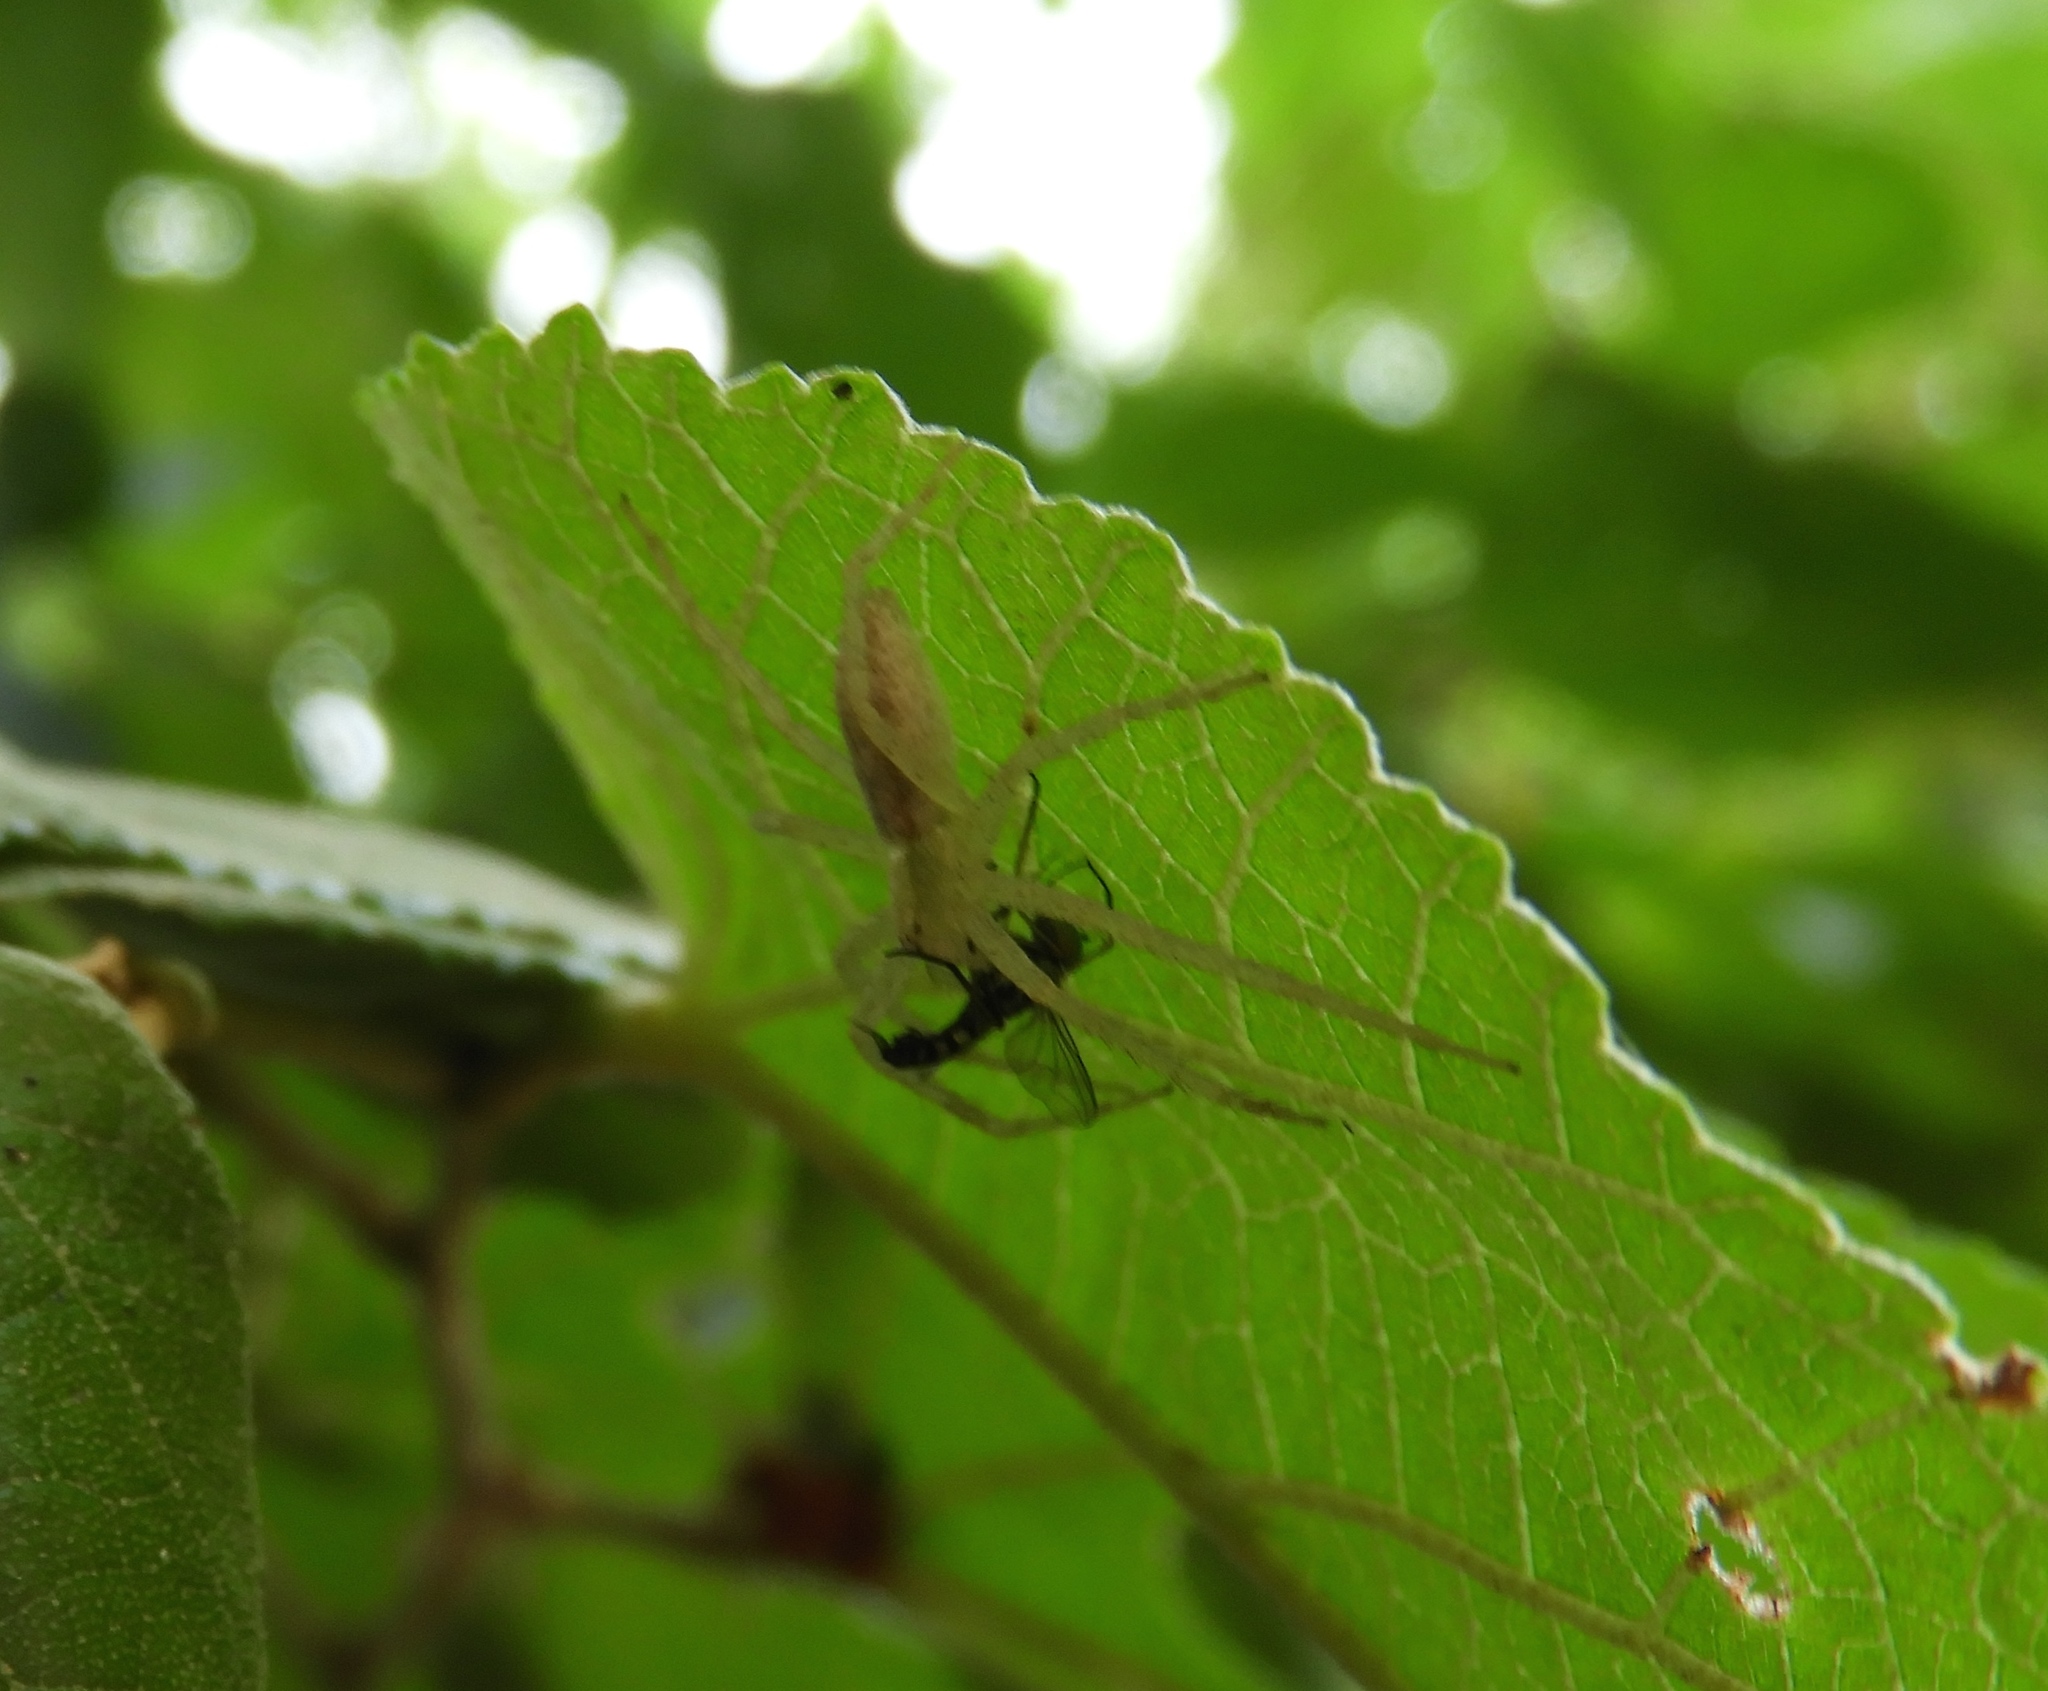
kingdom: Animalia
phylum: Arthropoda
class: Arachnida
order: Araneae
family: Philodromidae
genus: Apollophanes
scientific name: Apollophanes
